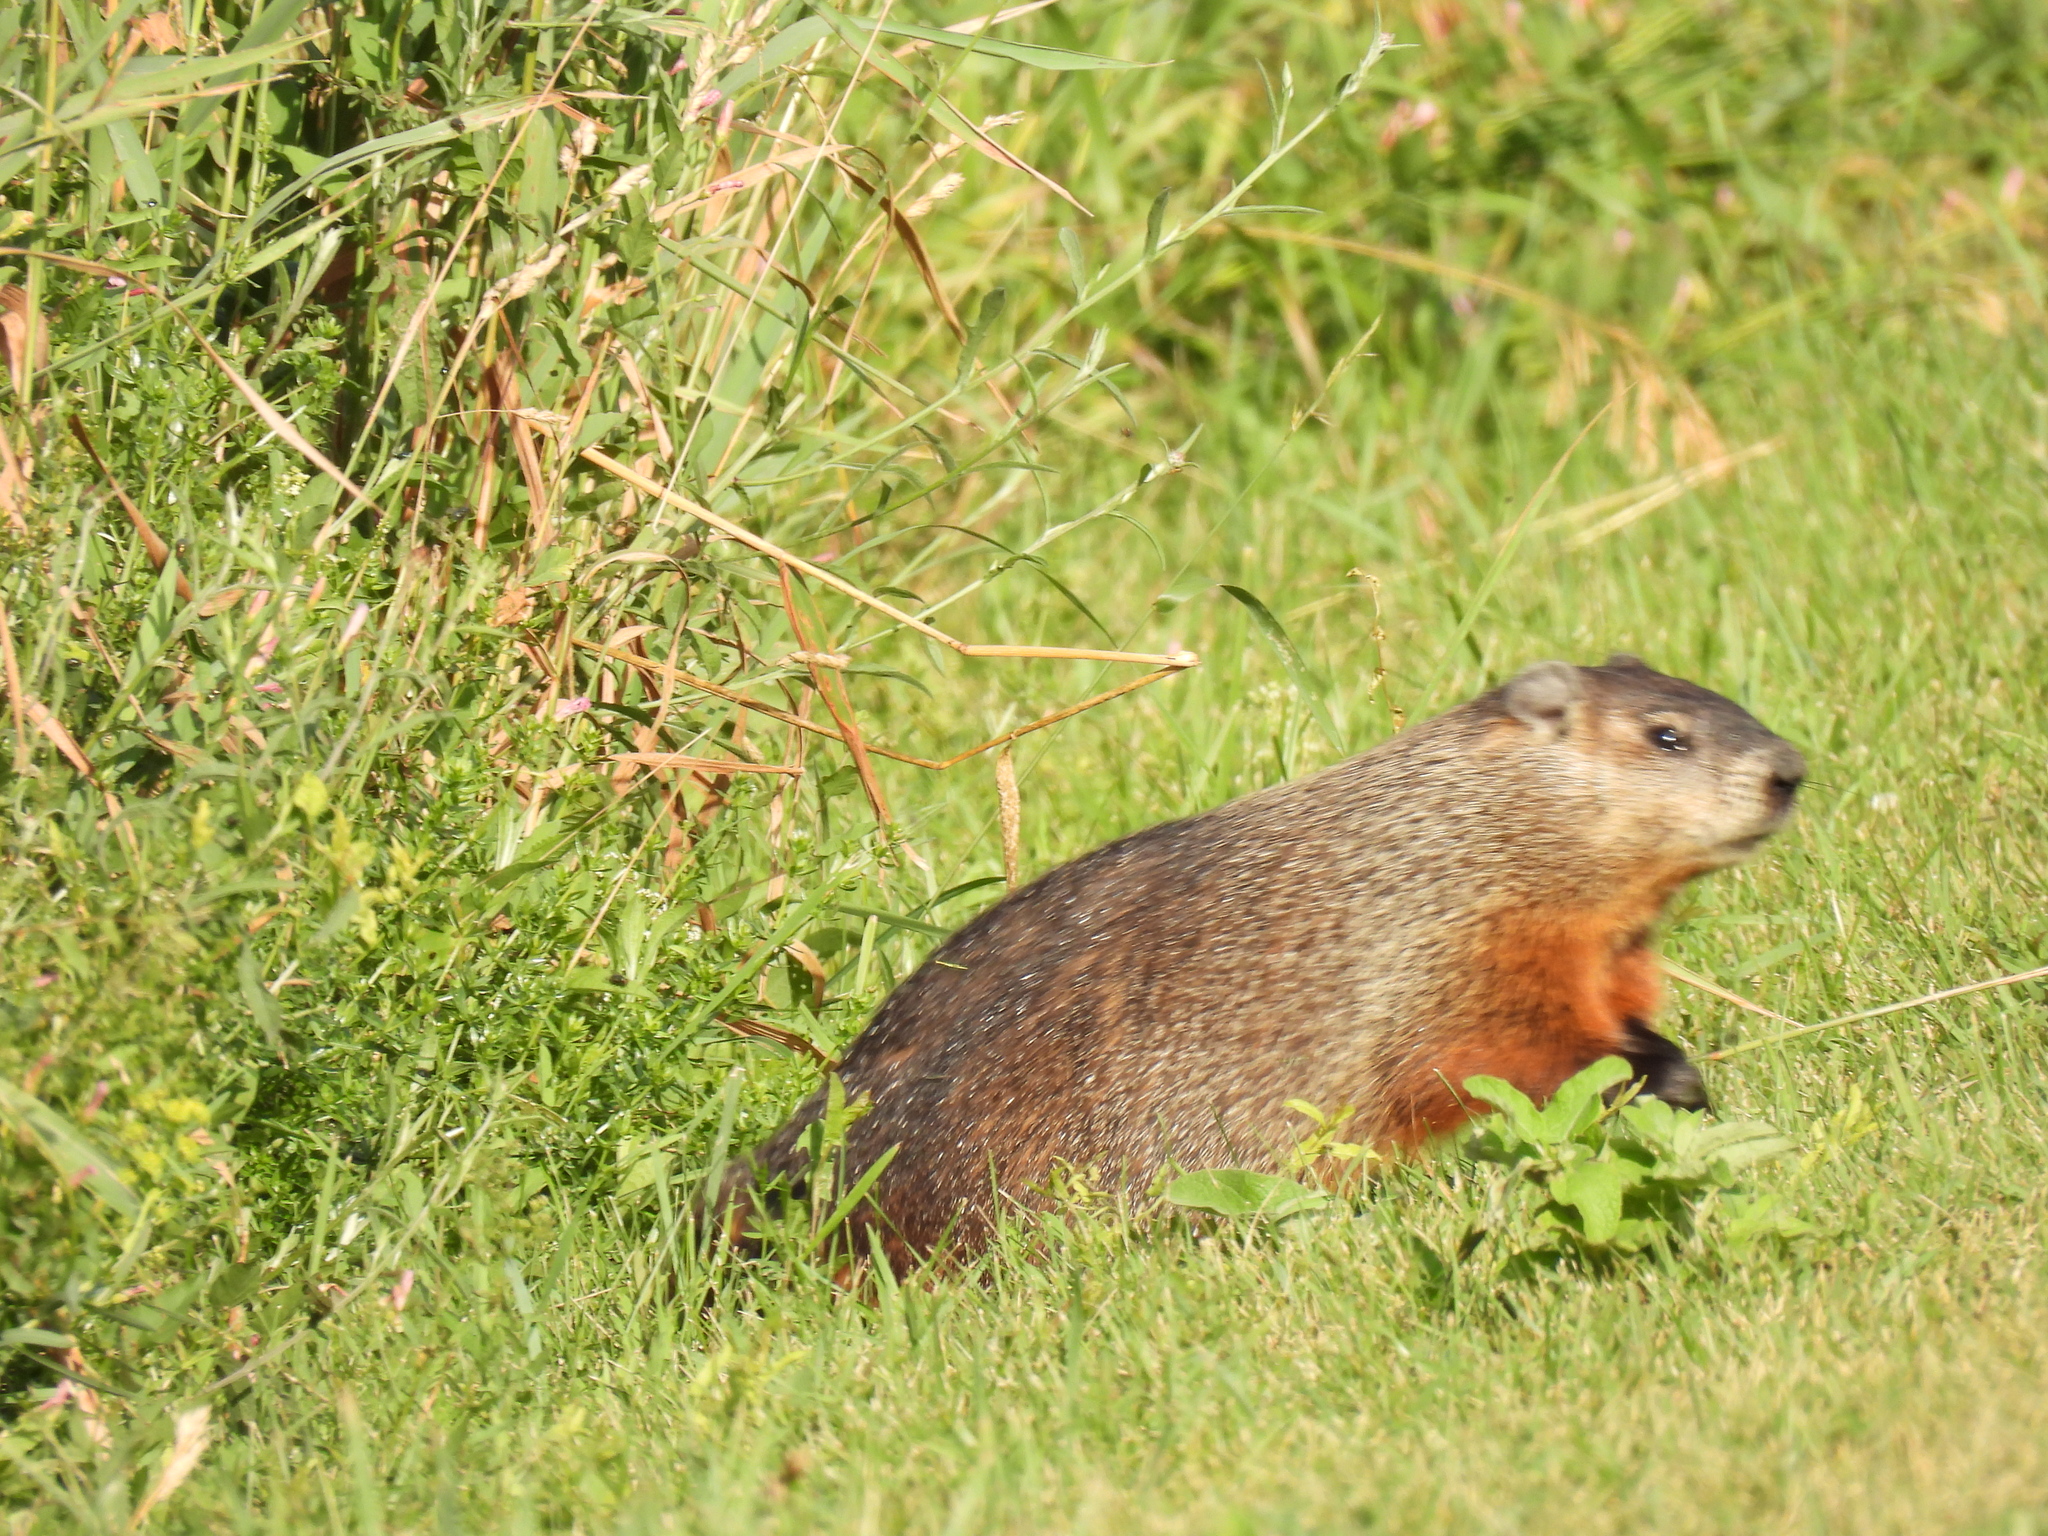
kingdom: Animalia
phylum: Chordata
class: Mammalia
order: Rodentia
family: Sciuridae
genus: Marmota
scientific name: Marmota monax
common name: Groundhog
